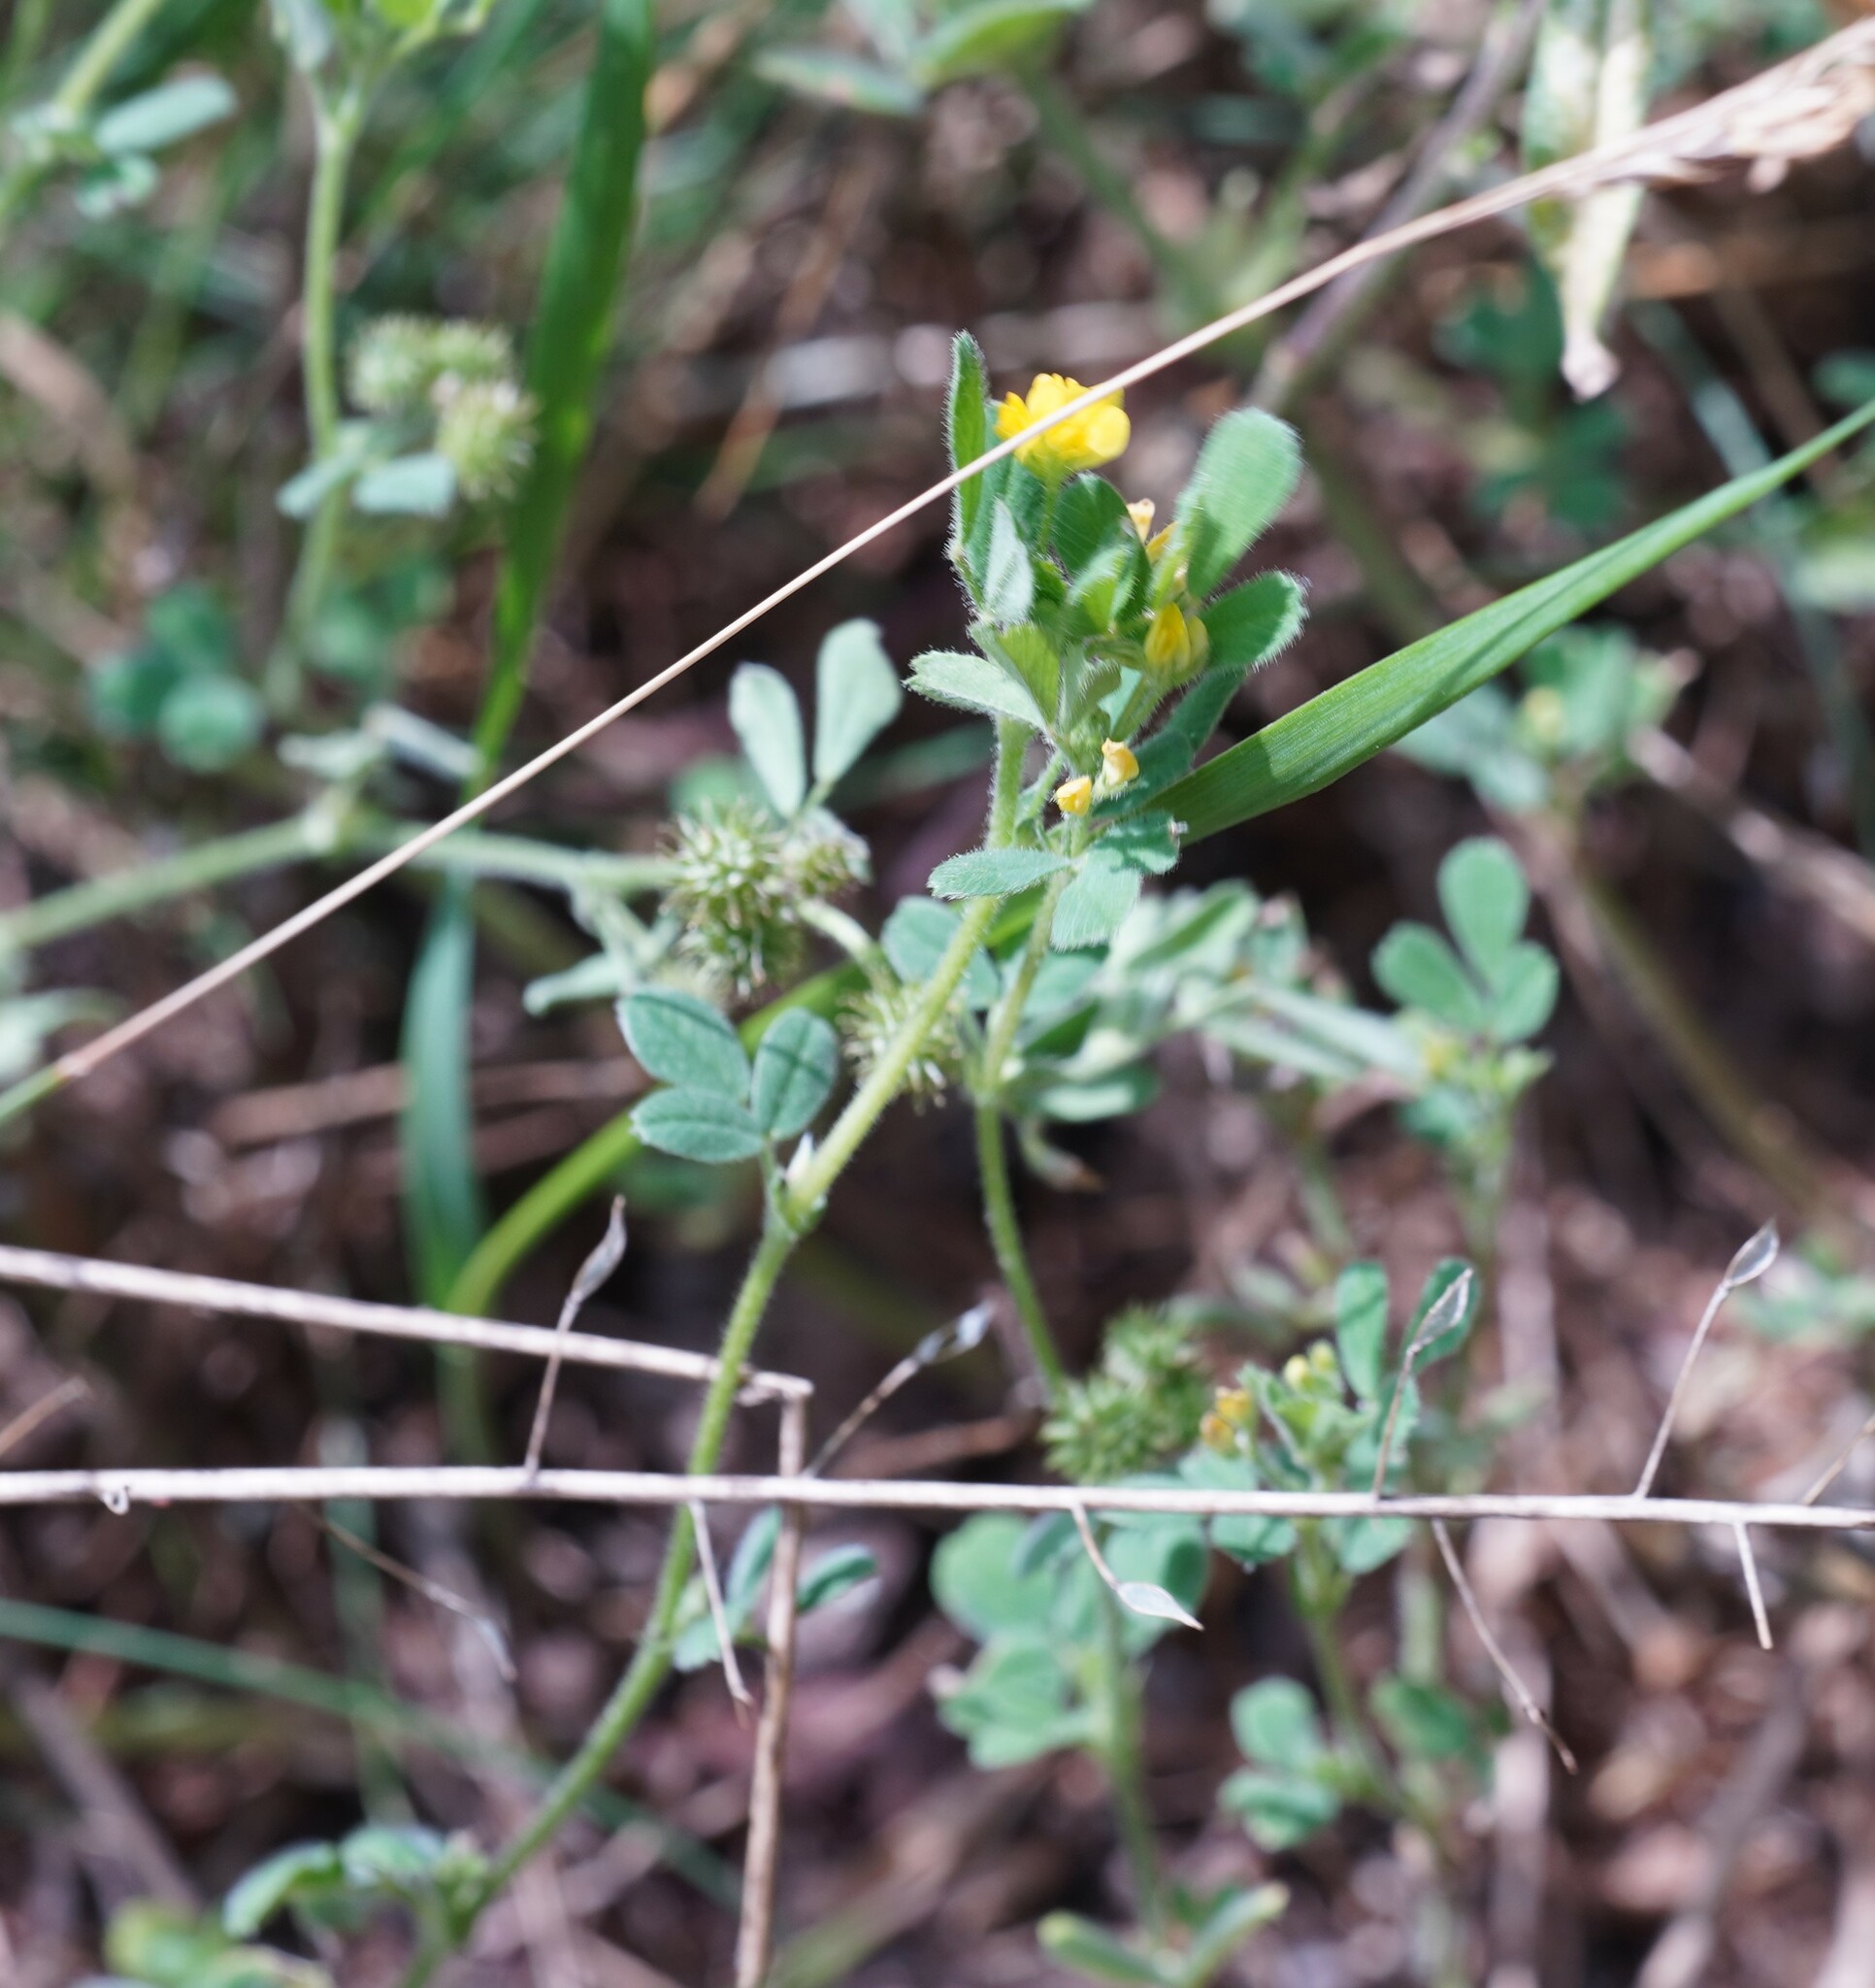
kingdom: Plantae
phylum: Tracheophyta
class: Magnoliopsida
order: Fabales
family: Fabaceae
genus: Medicago
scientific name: Medicago minima
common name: Little bur-clover
